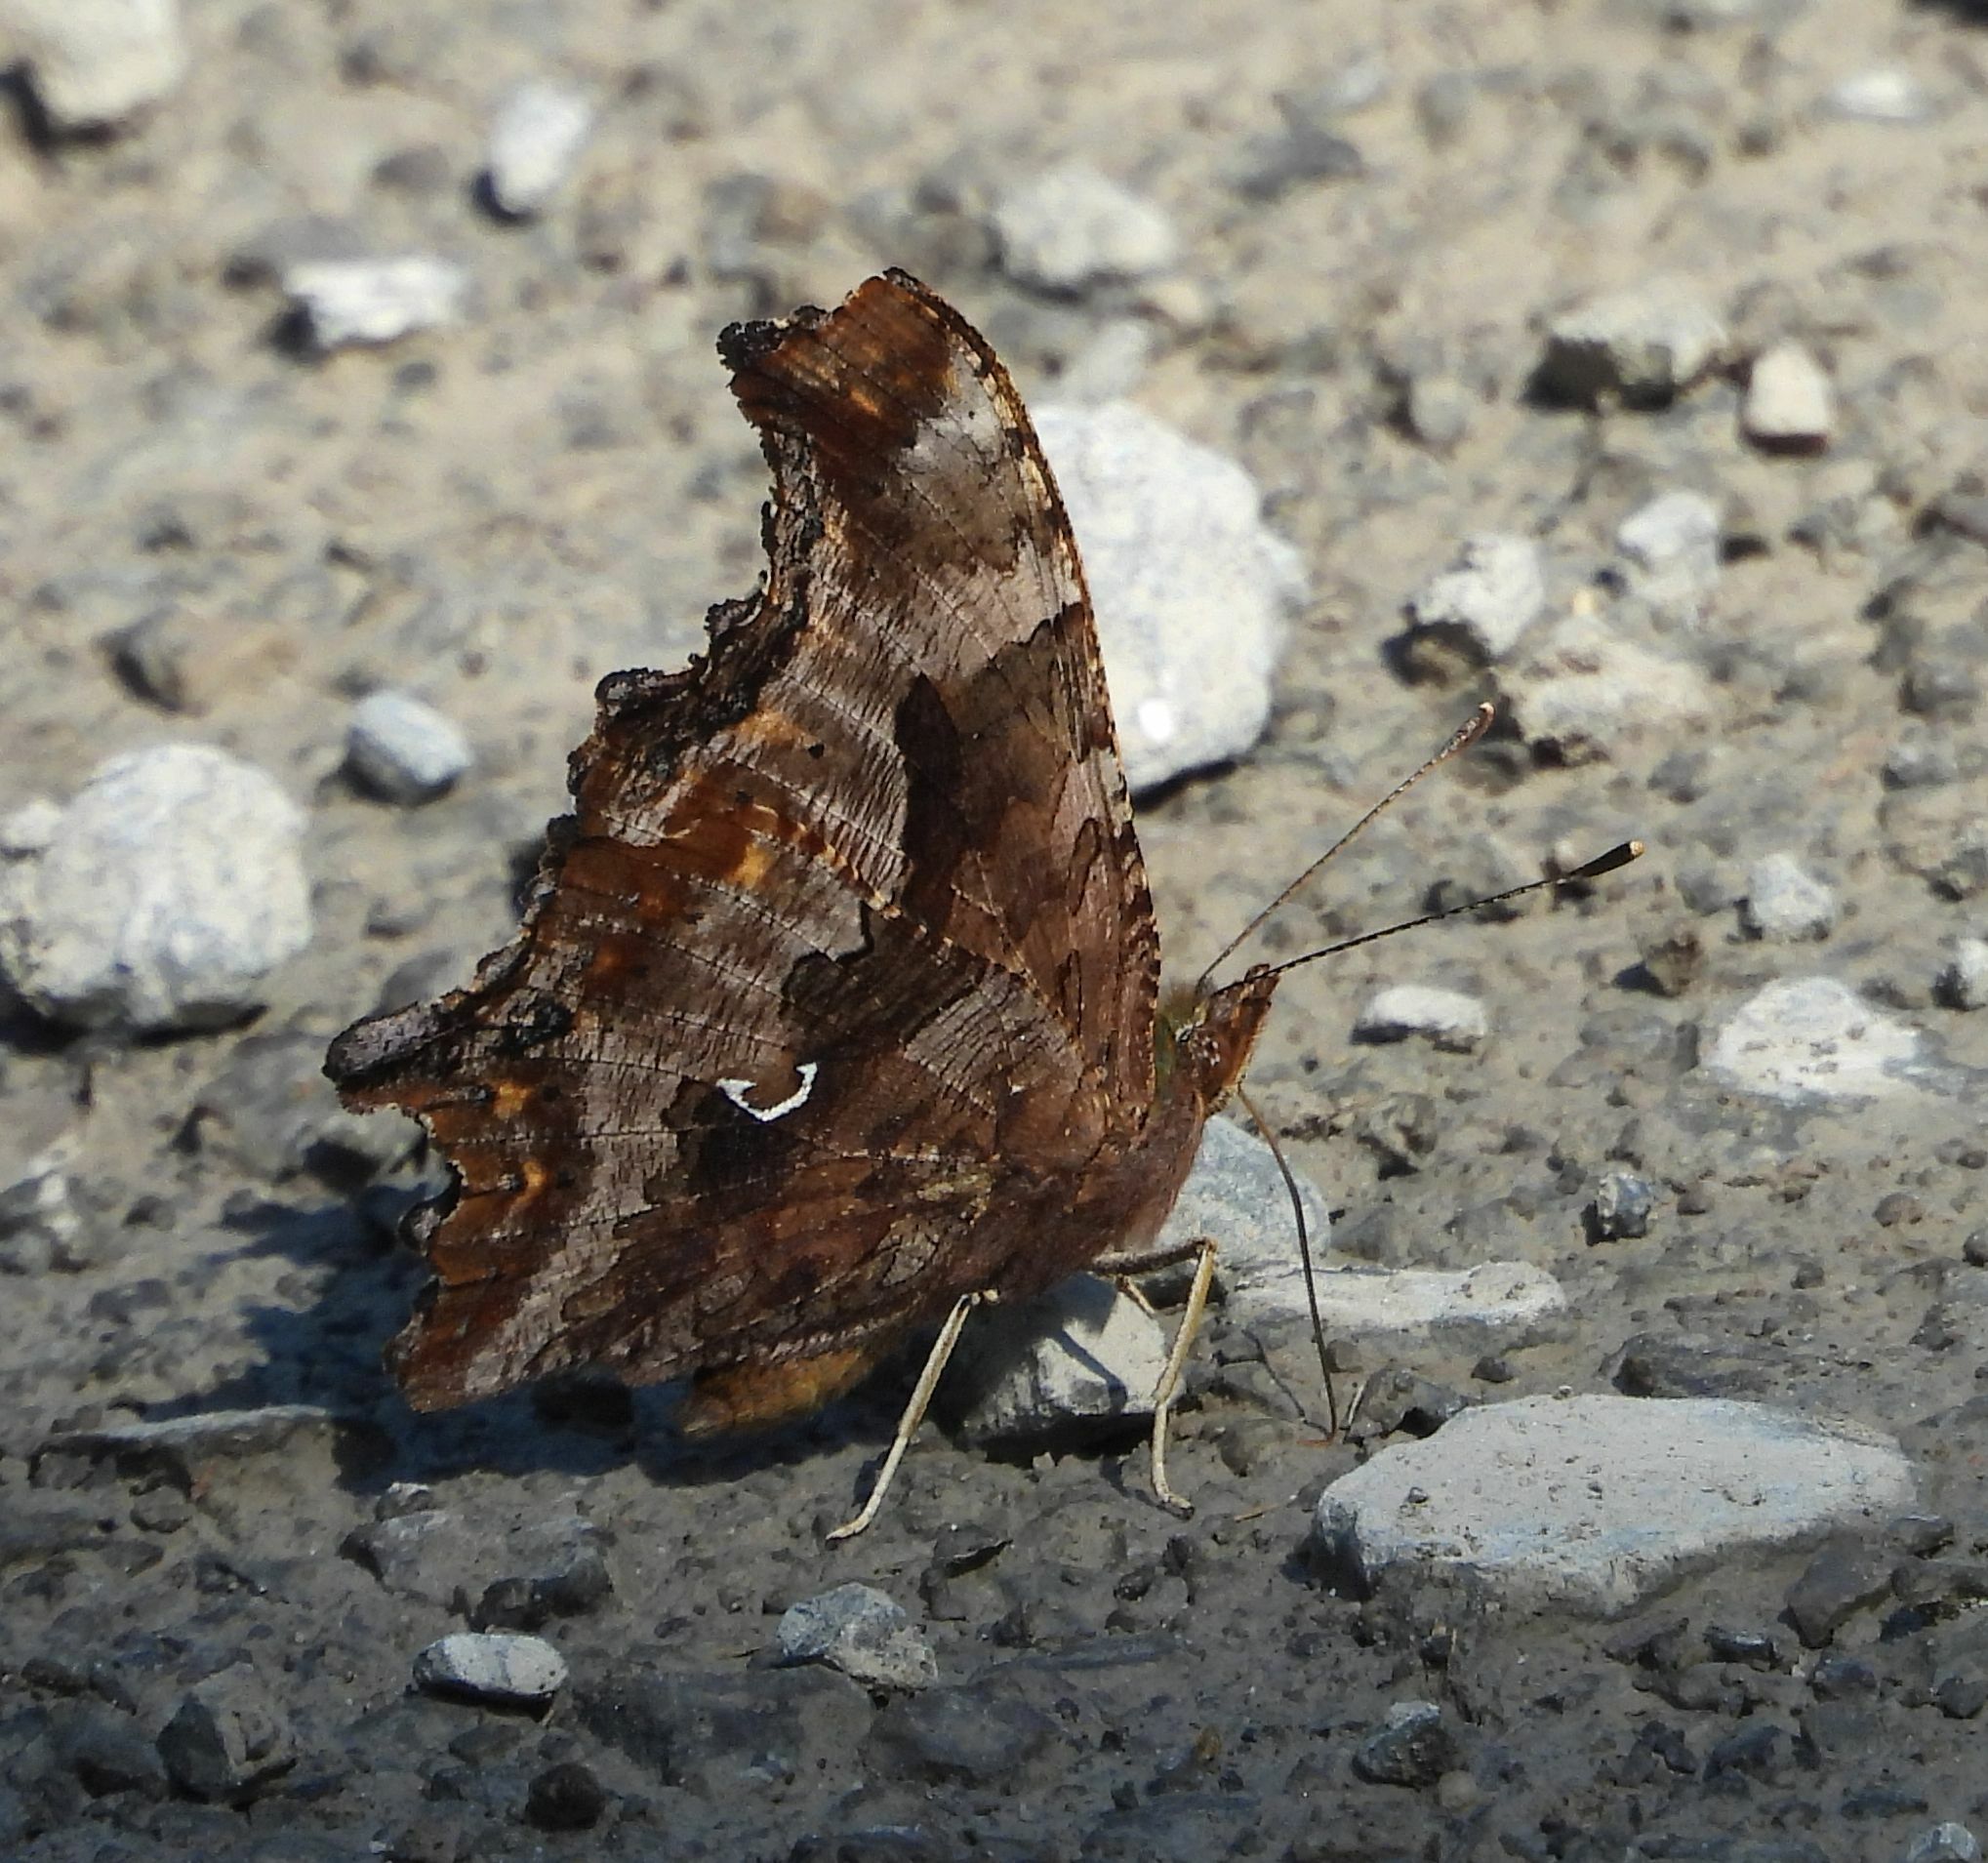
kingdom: Animalia
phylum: Arthropoda
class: Insecta
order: Lepidoptera
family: Nymphalidae
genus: Polygonia
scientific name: Polygonia comma
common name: Eastern comma
